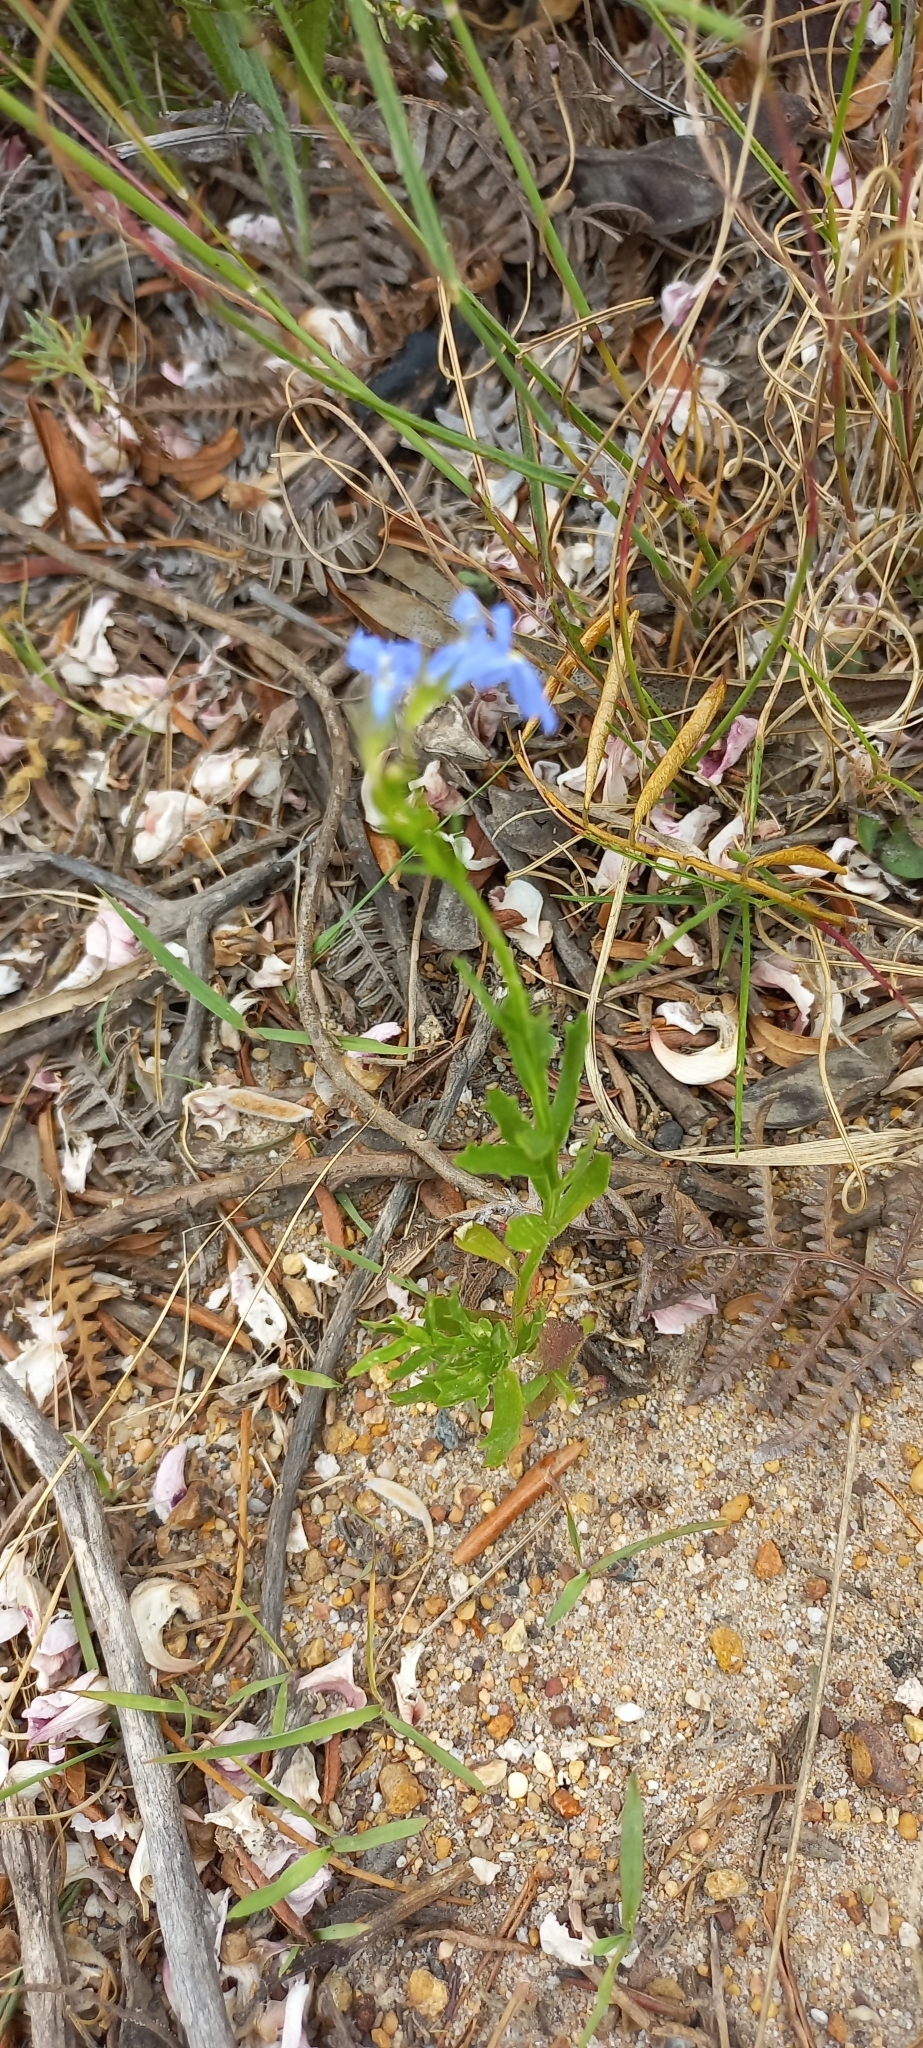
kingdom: Plantae
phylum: Tracheophyta
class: Magnoliopsida
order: Asterales
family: Campanulaceae
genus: Lobelia
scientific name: Lobelia comosa
